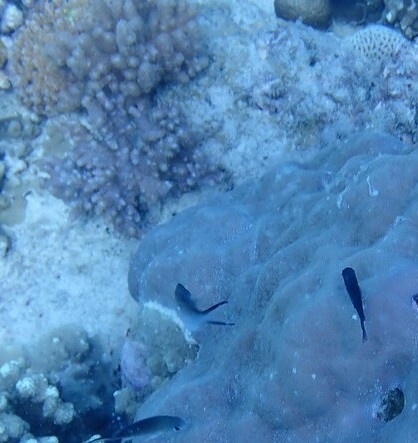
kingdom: Animalia
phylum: Chordata
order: Perciformes
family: Pomacentridae
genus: Chromis
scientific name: Chromis ternatensis
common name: Ternate chromis
